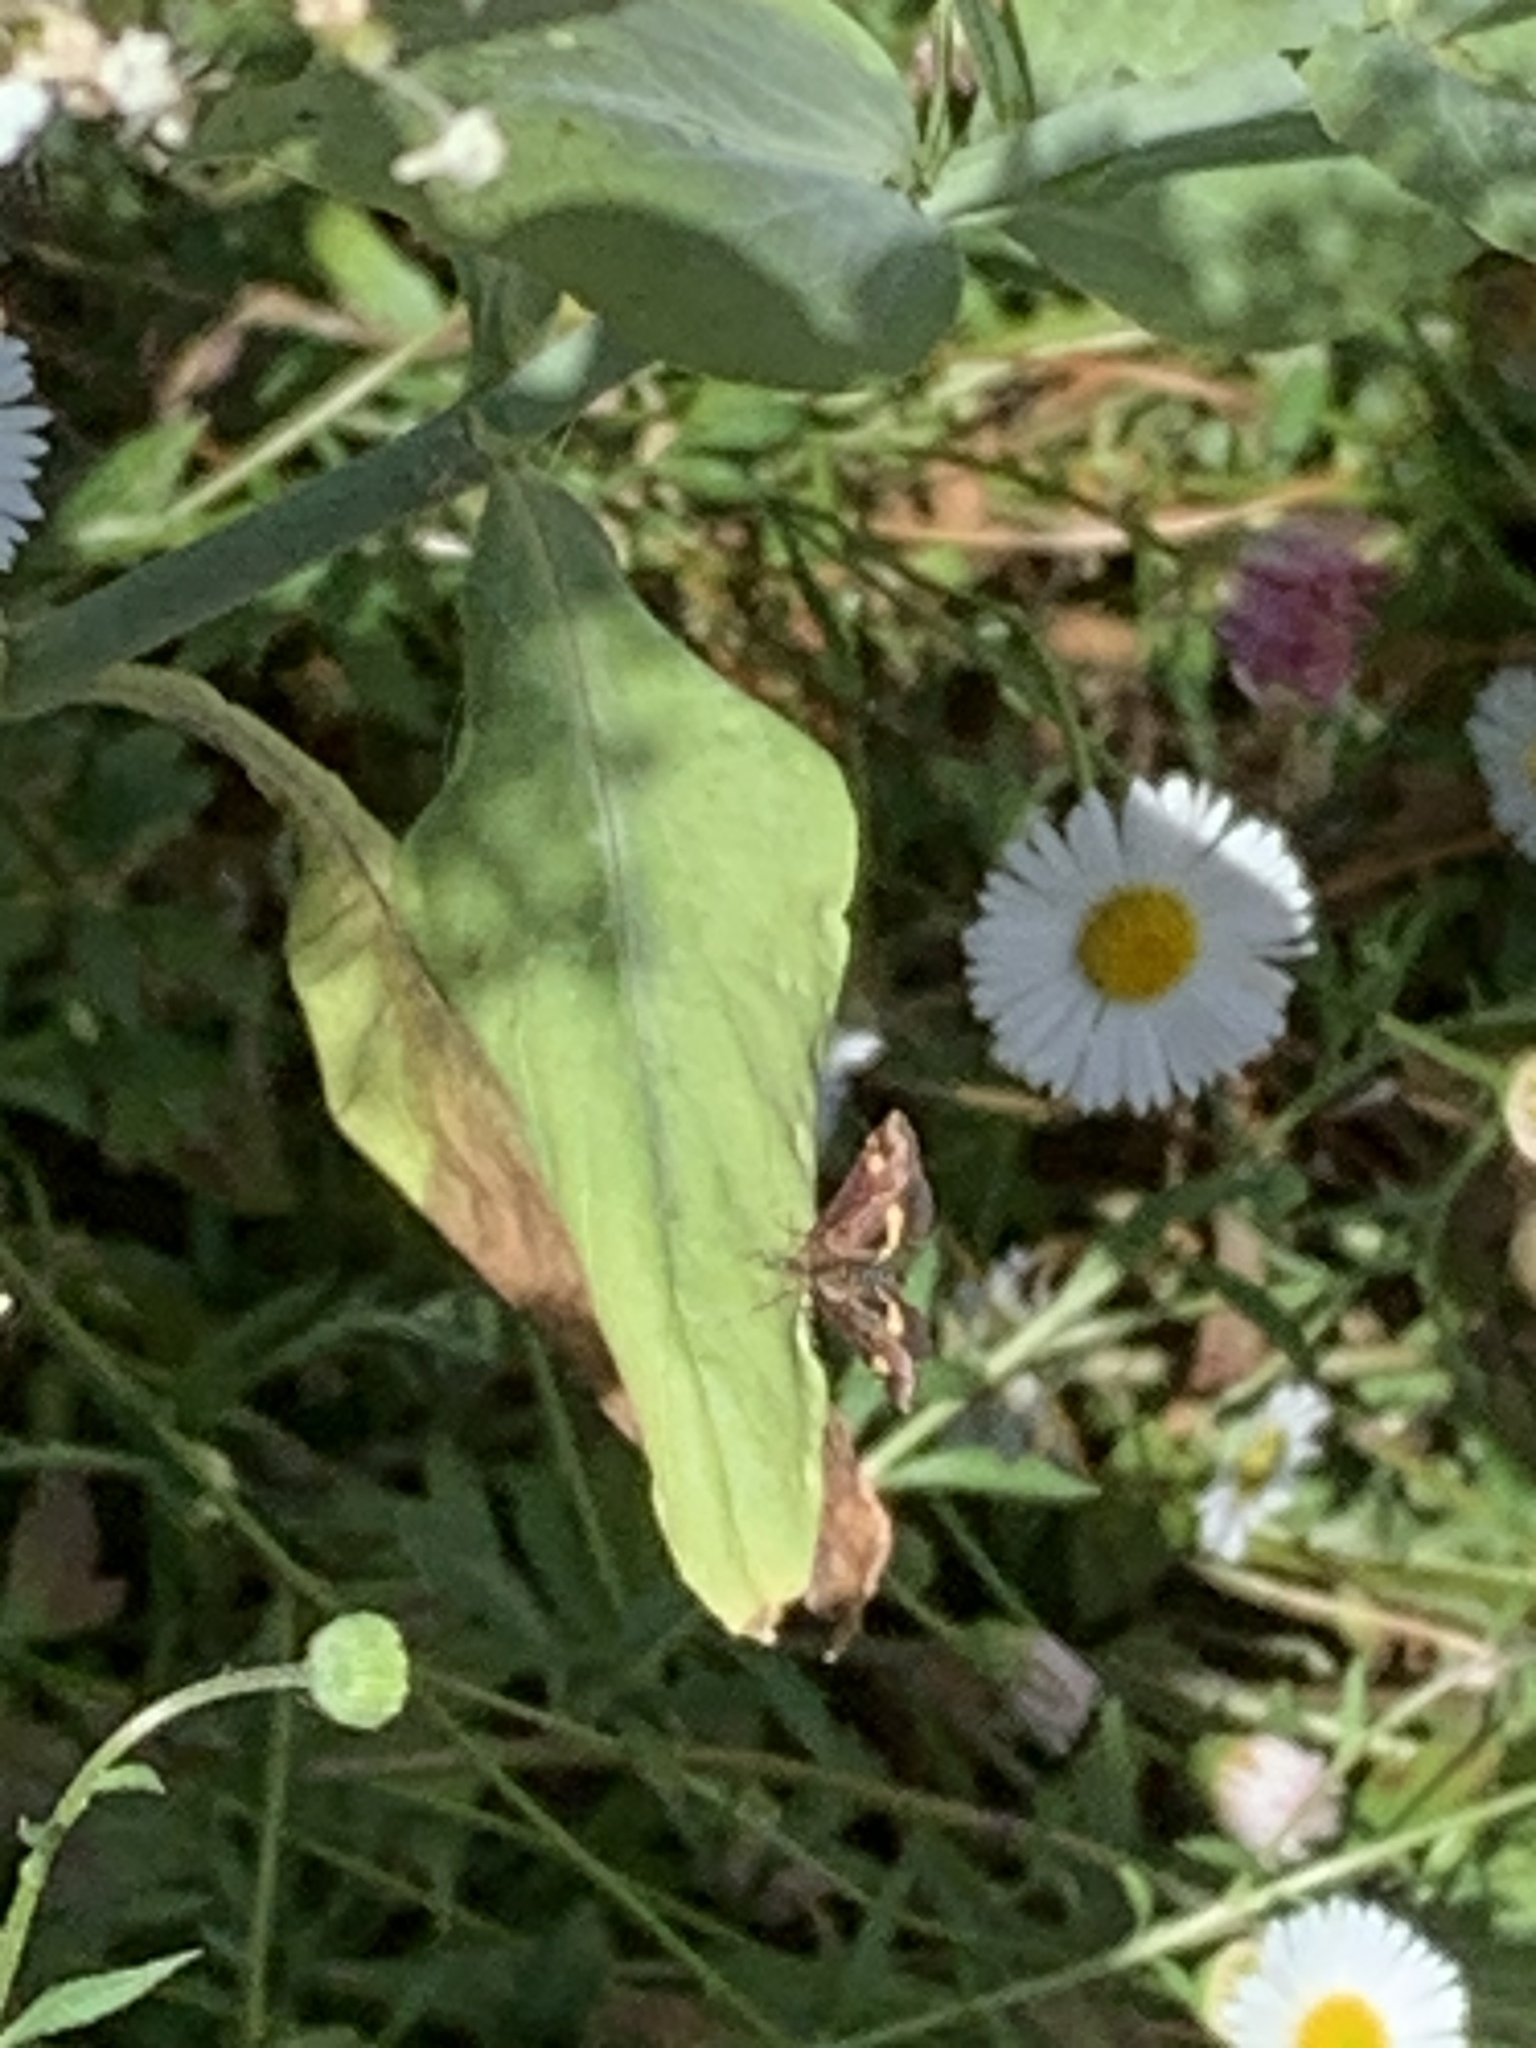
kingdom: Animalia
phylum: Arthropoda
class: Insecta
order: Lepidoptera
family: Crambidae
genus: Pyrausta
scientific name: Pyrausta aurata
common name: Small purple & gold
